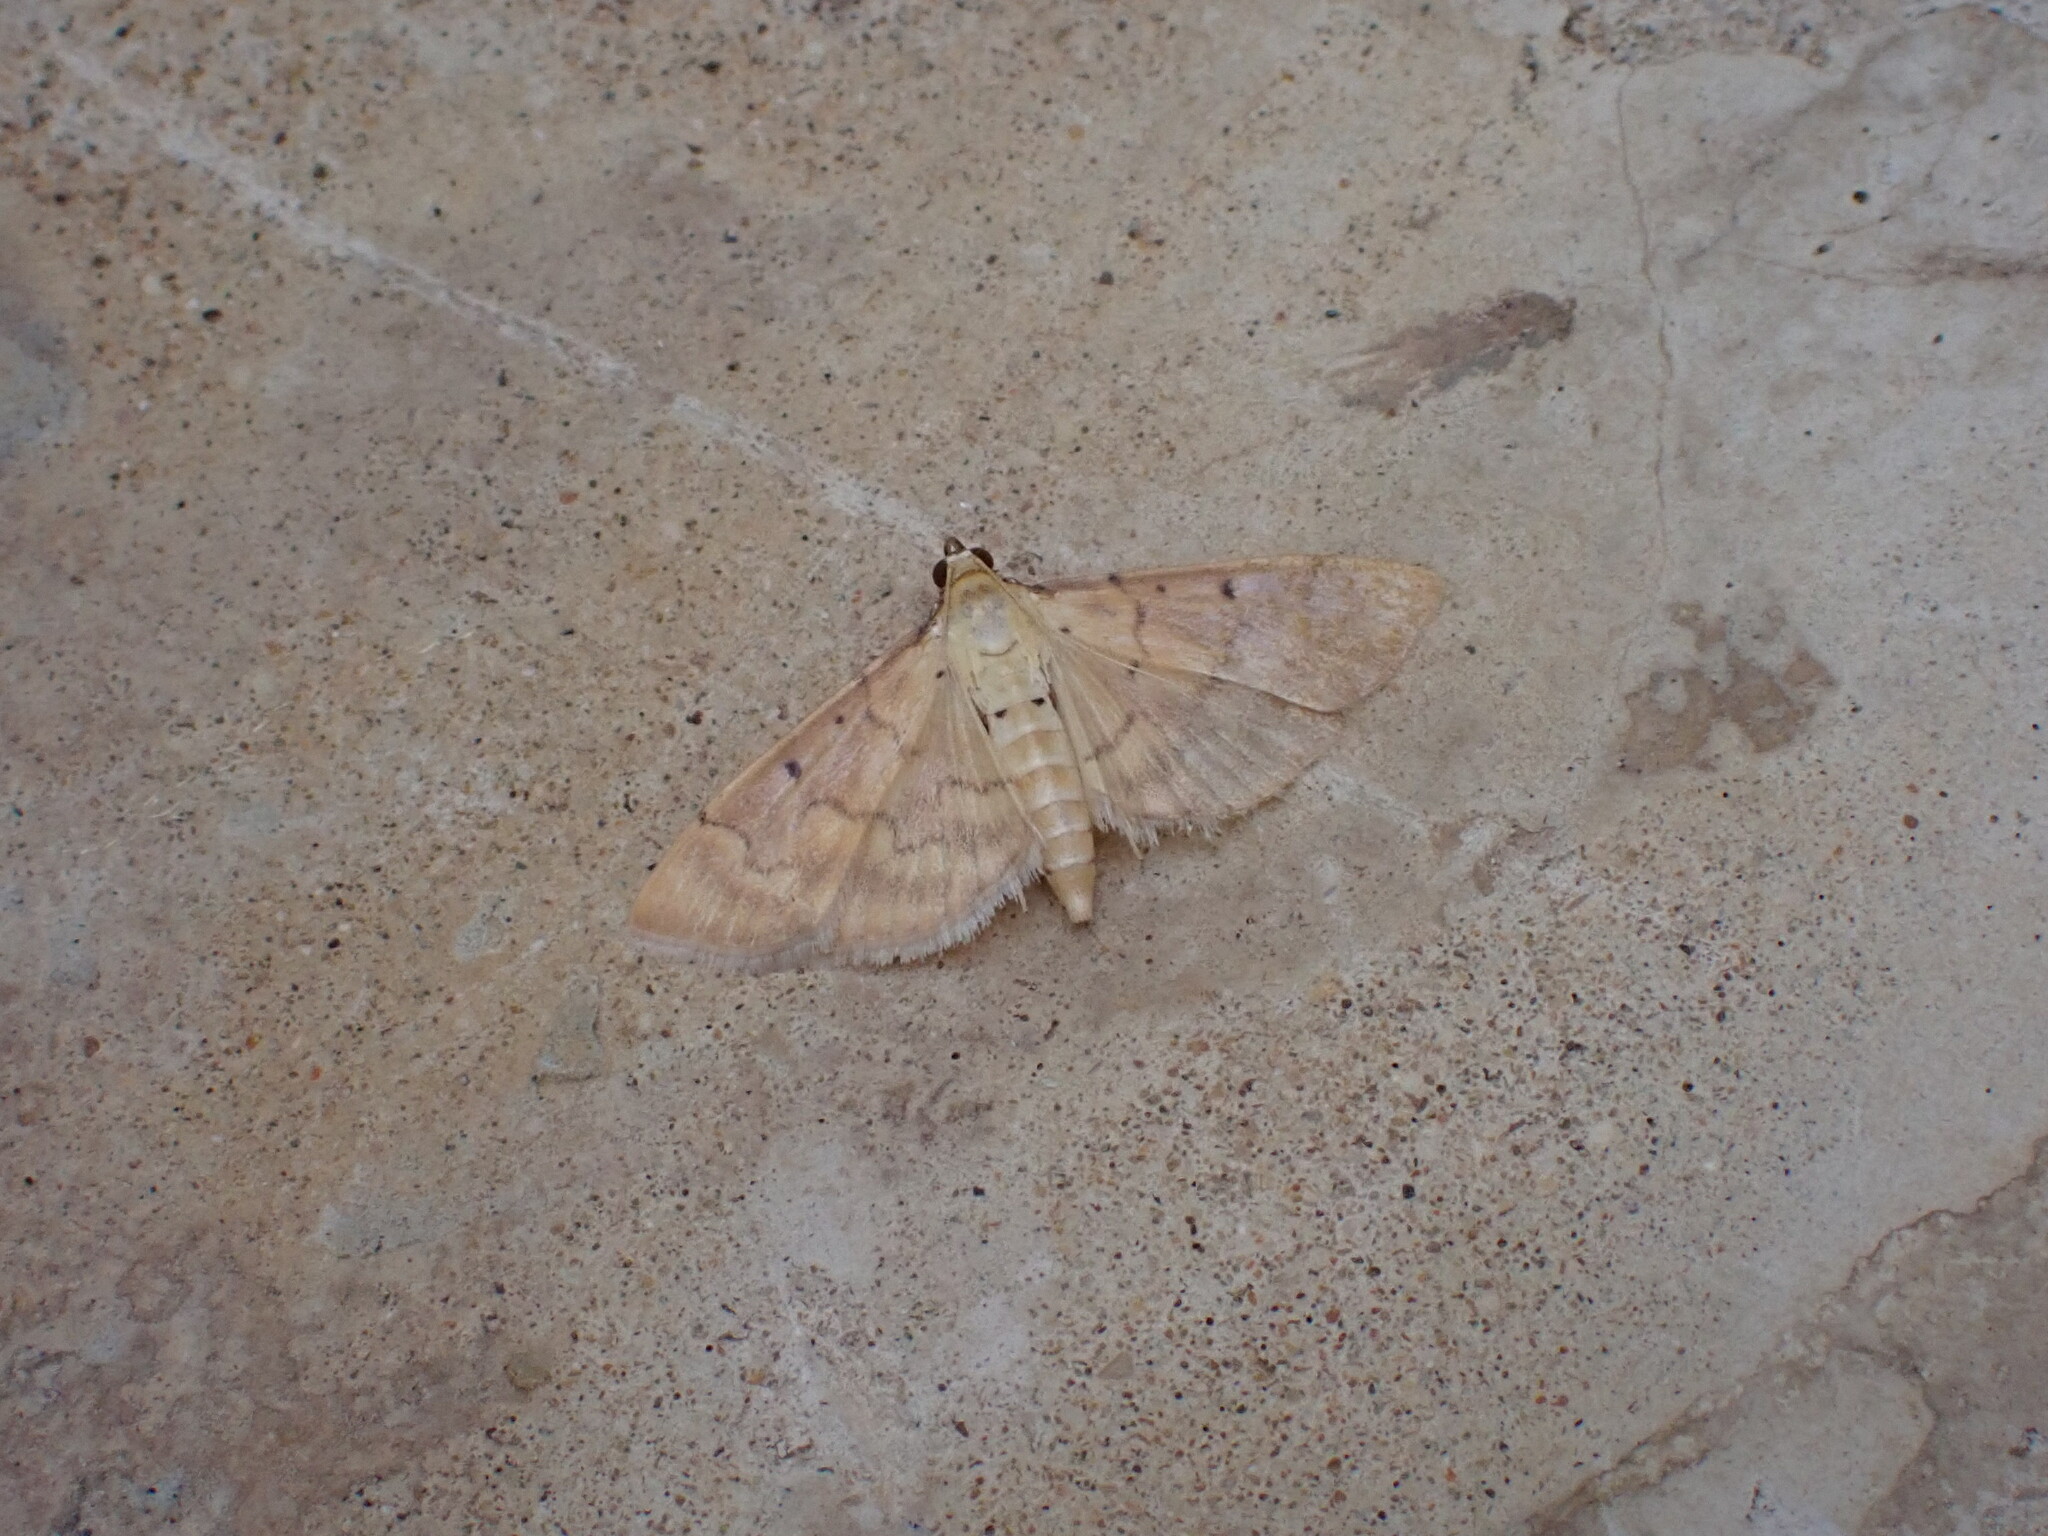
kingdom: Animalia
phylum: Arthropoda
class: Insecta
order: Lepidoptera
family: Crambidae
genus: Herpetogramma
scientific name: Herpetogramma
